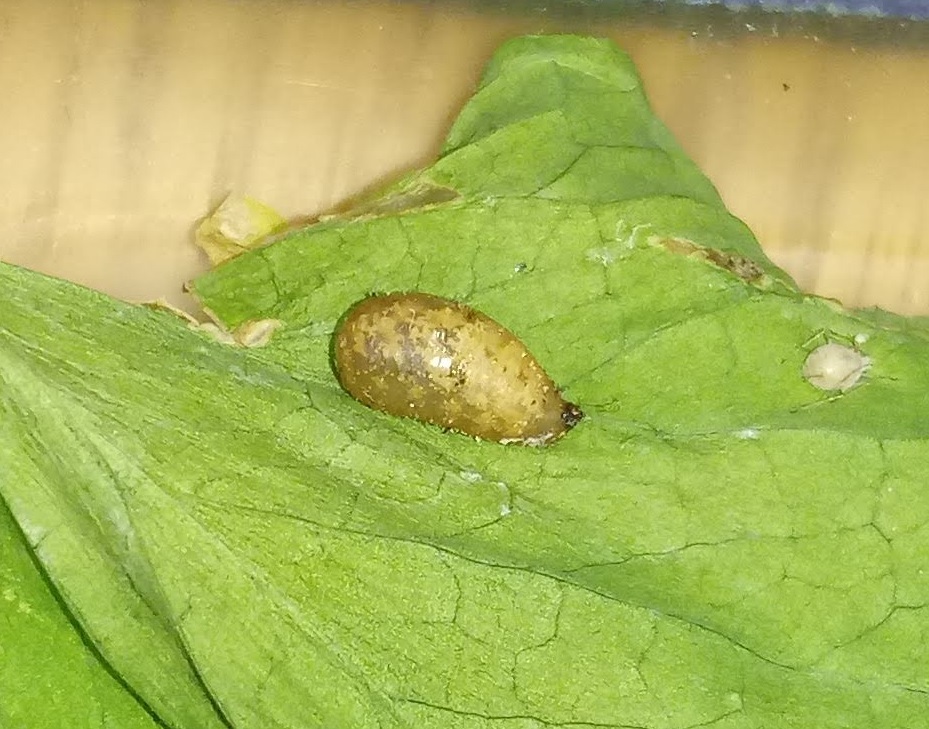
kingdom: Animalia
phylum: Arthropoda
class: Insecta
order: Diptera
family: Syrphidae
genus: Syrphus
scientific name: Syrphus knabi
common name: Eastern flower fly
